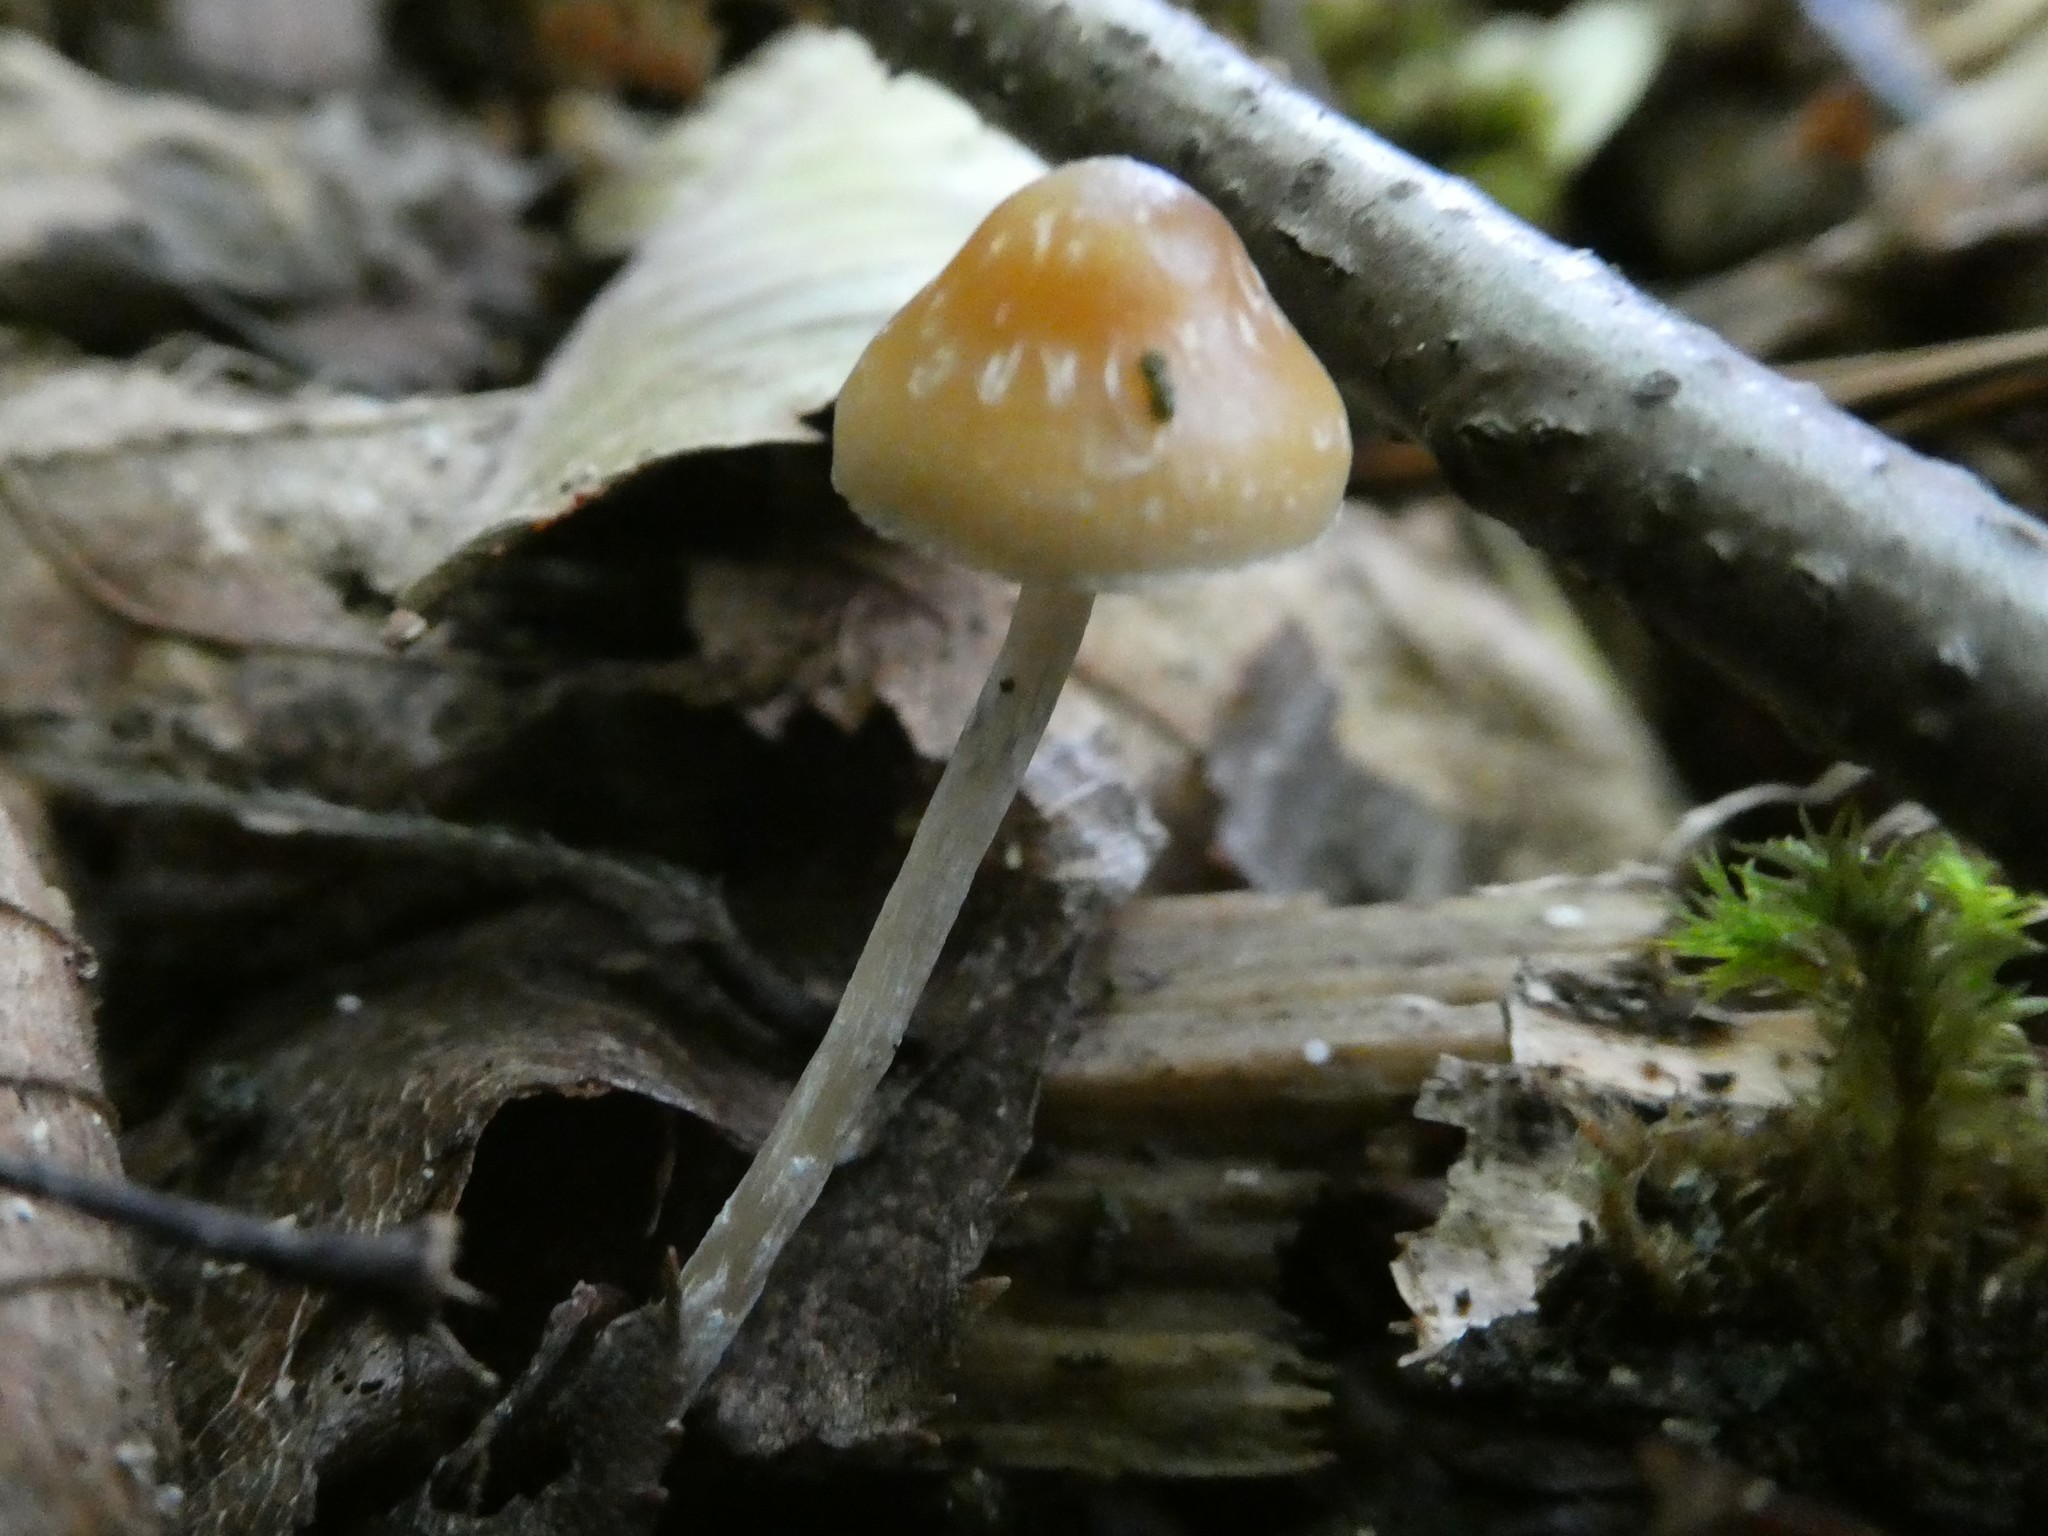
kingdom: Fungi
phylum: Basidiomycota
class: Agaricomycetes
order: Agaricales
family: Hymenogastraceae
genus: Psilocybe
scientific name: Psilocybe caerulipes
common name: Blue-foot
